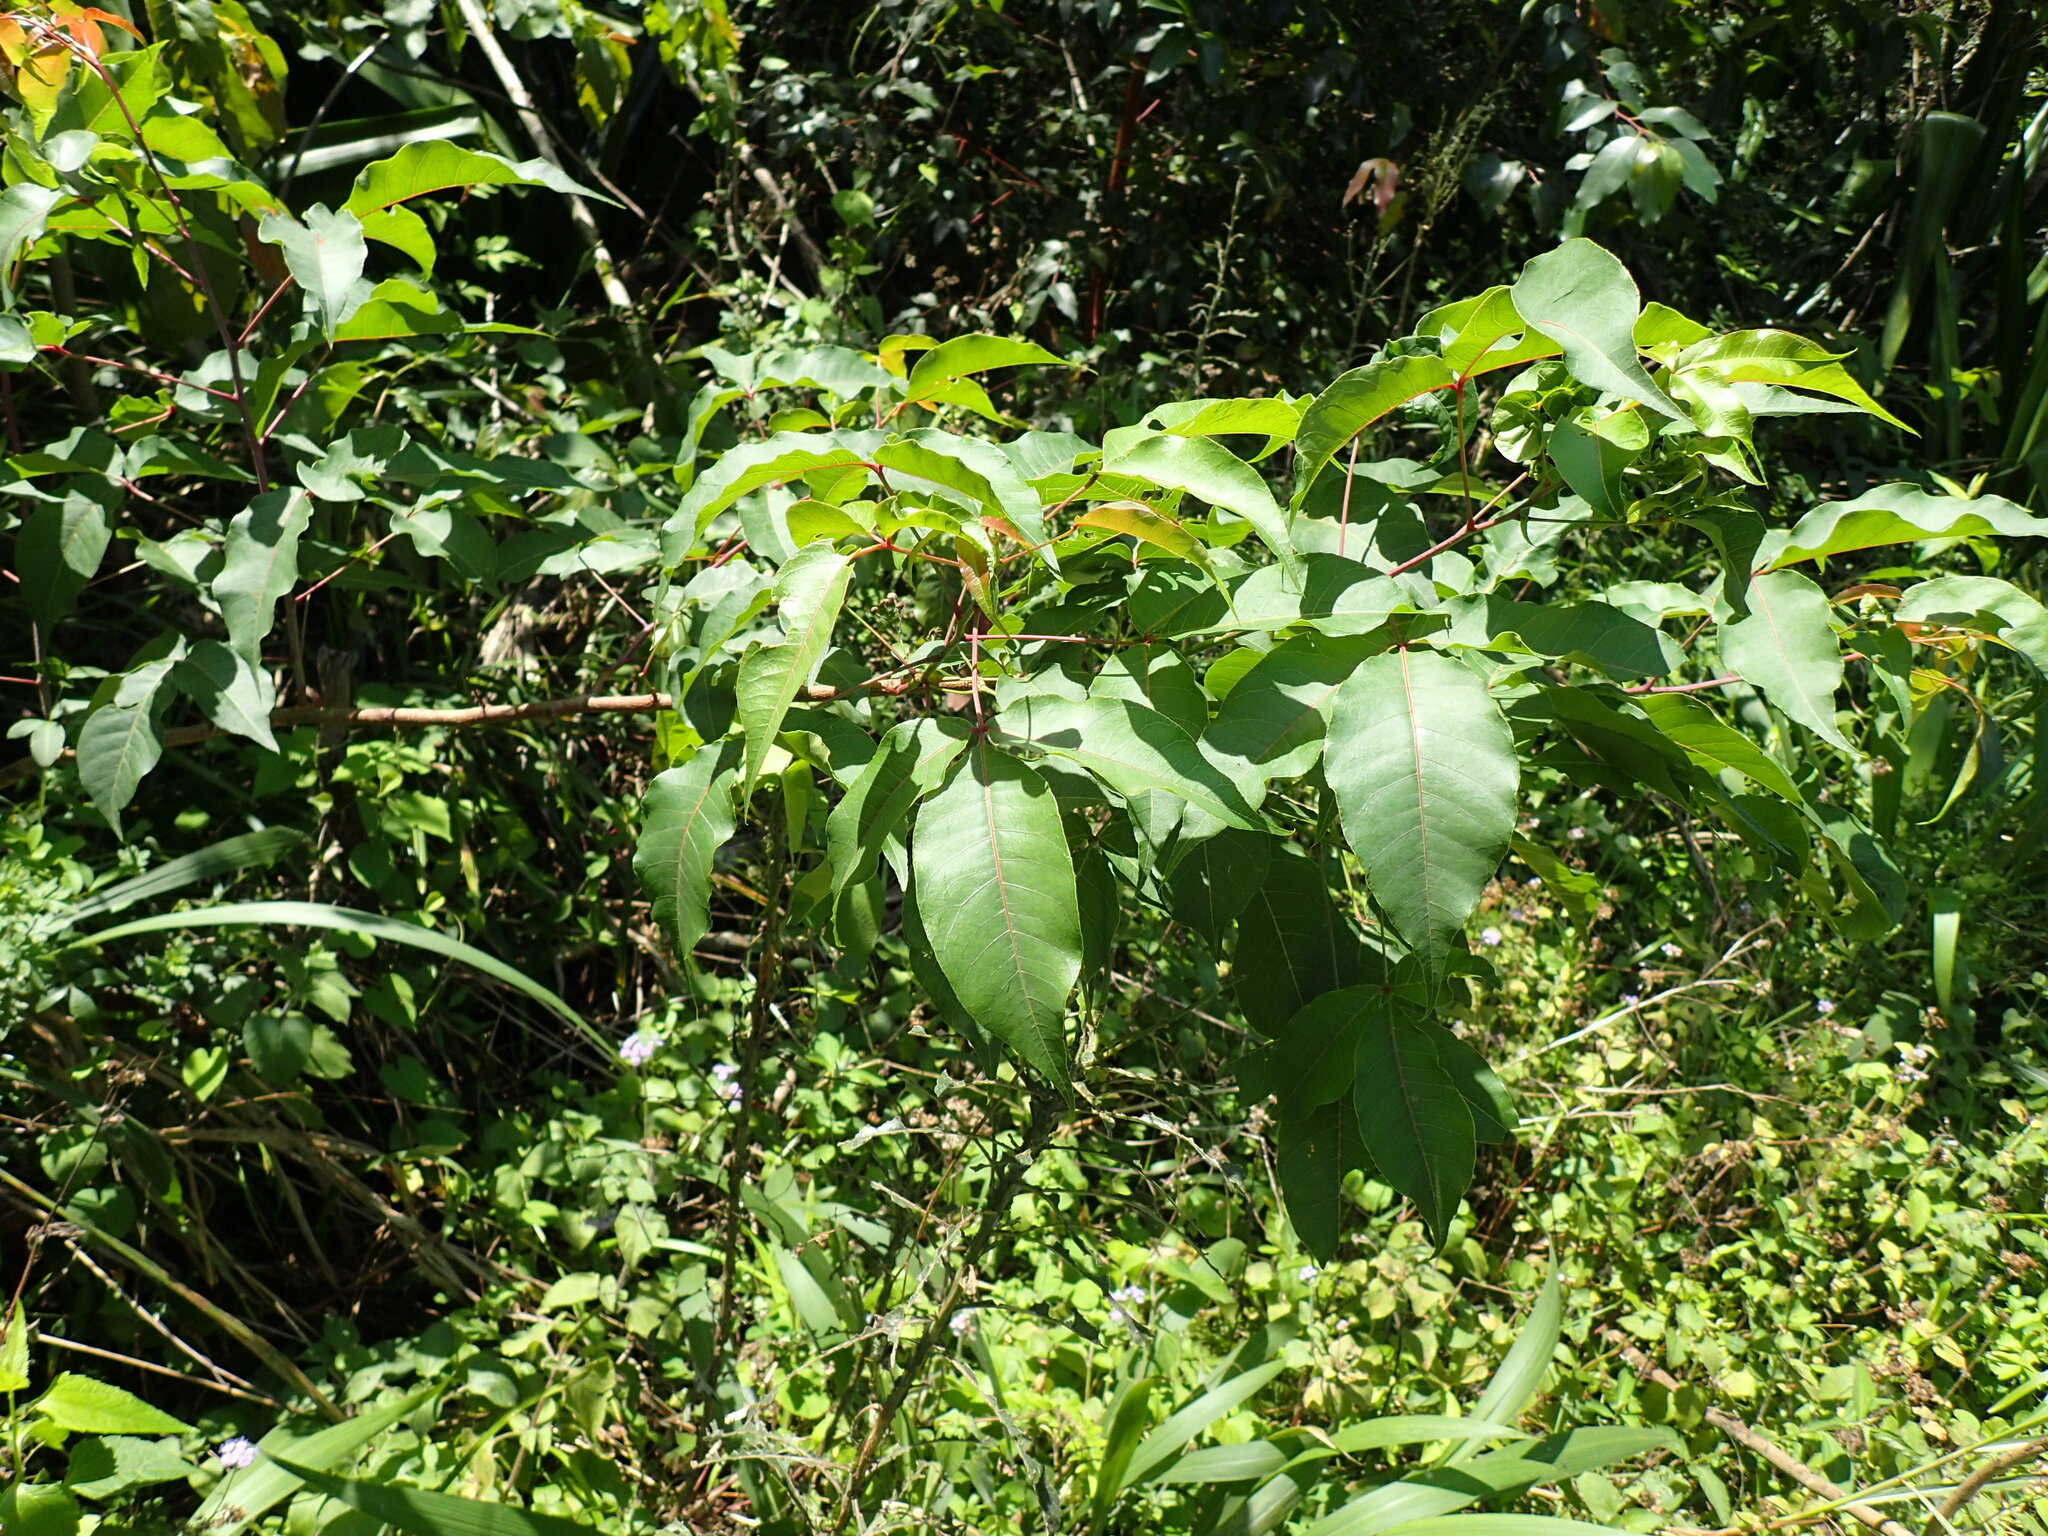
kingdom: Plantae
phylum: Tracheophyta
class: Magnoliopsida
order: Sapindales
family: Anacardiaceae
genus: Searsia
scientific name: Searsia chirindensis
